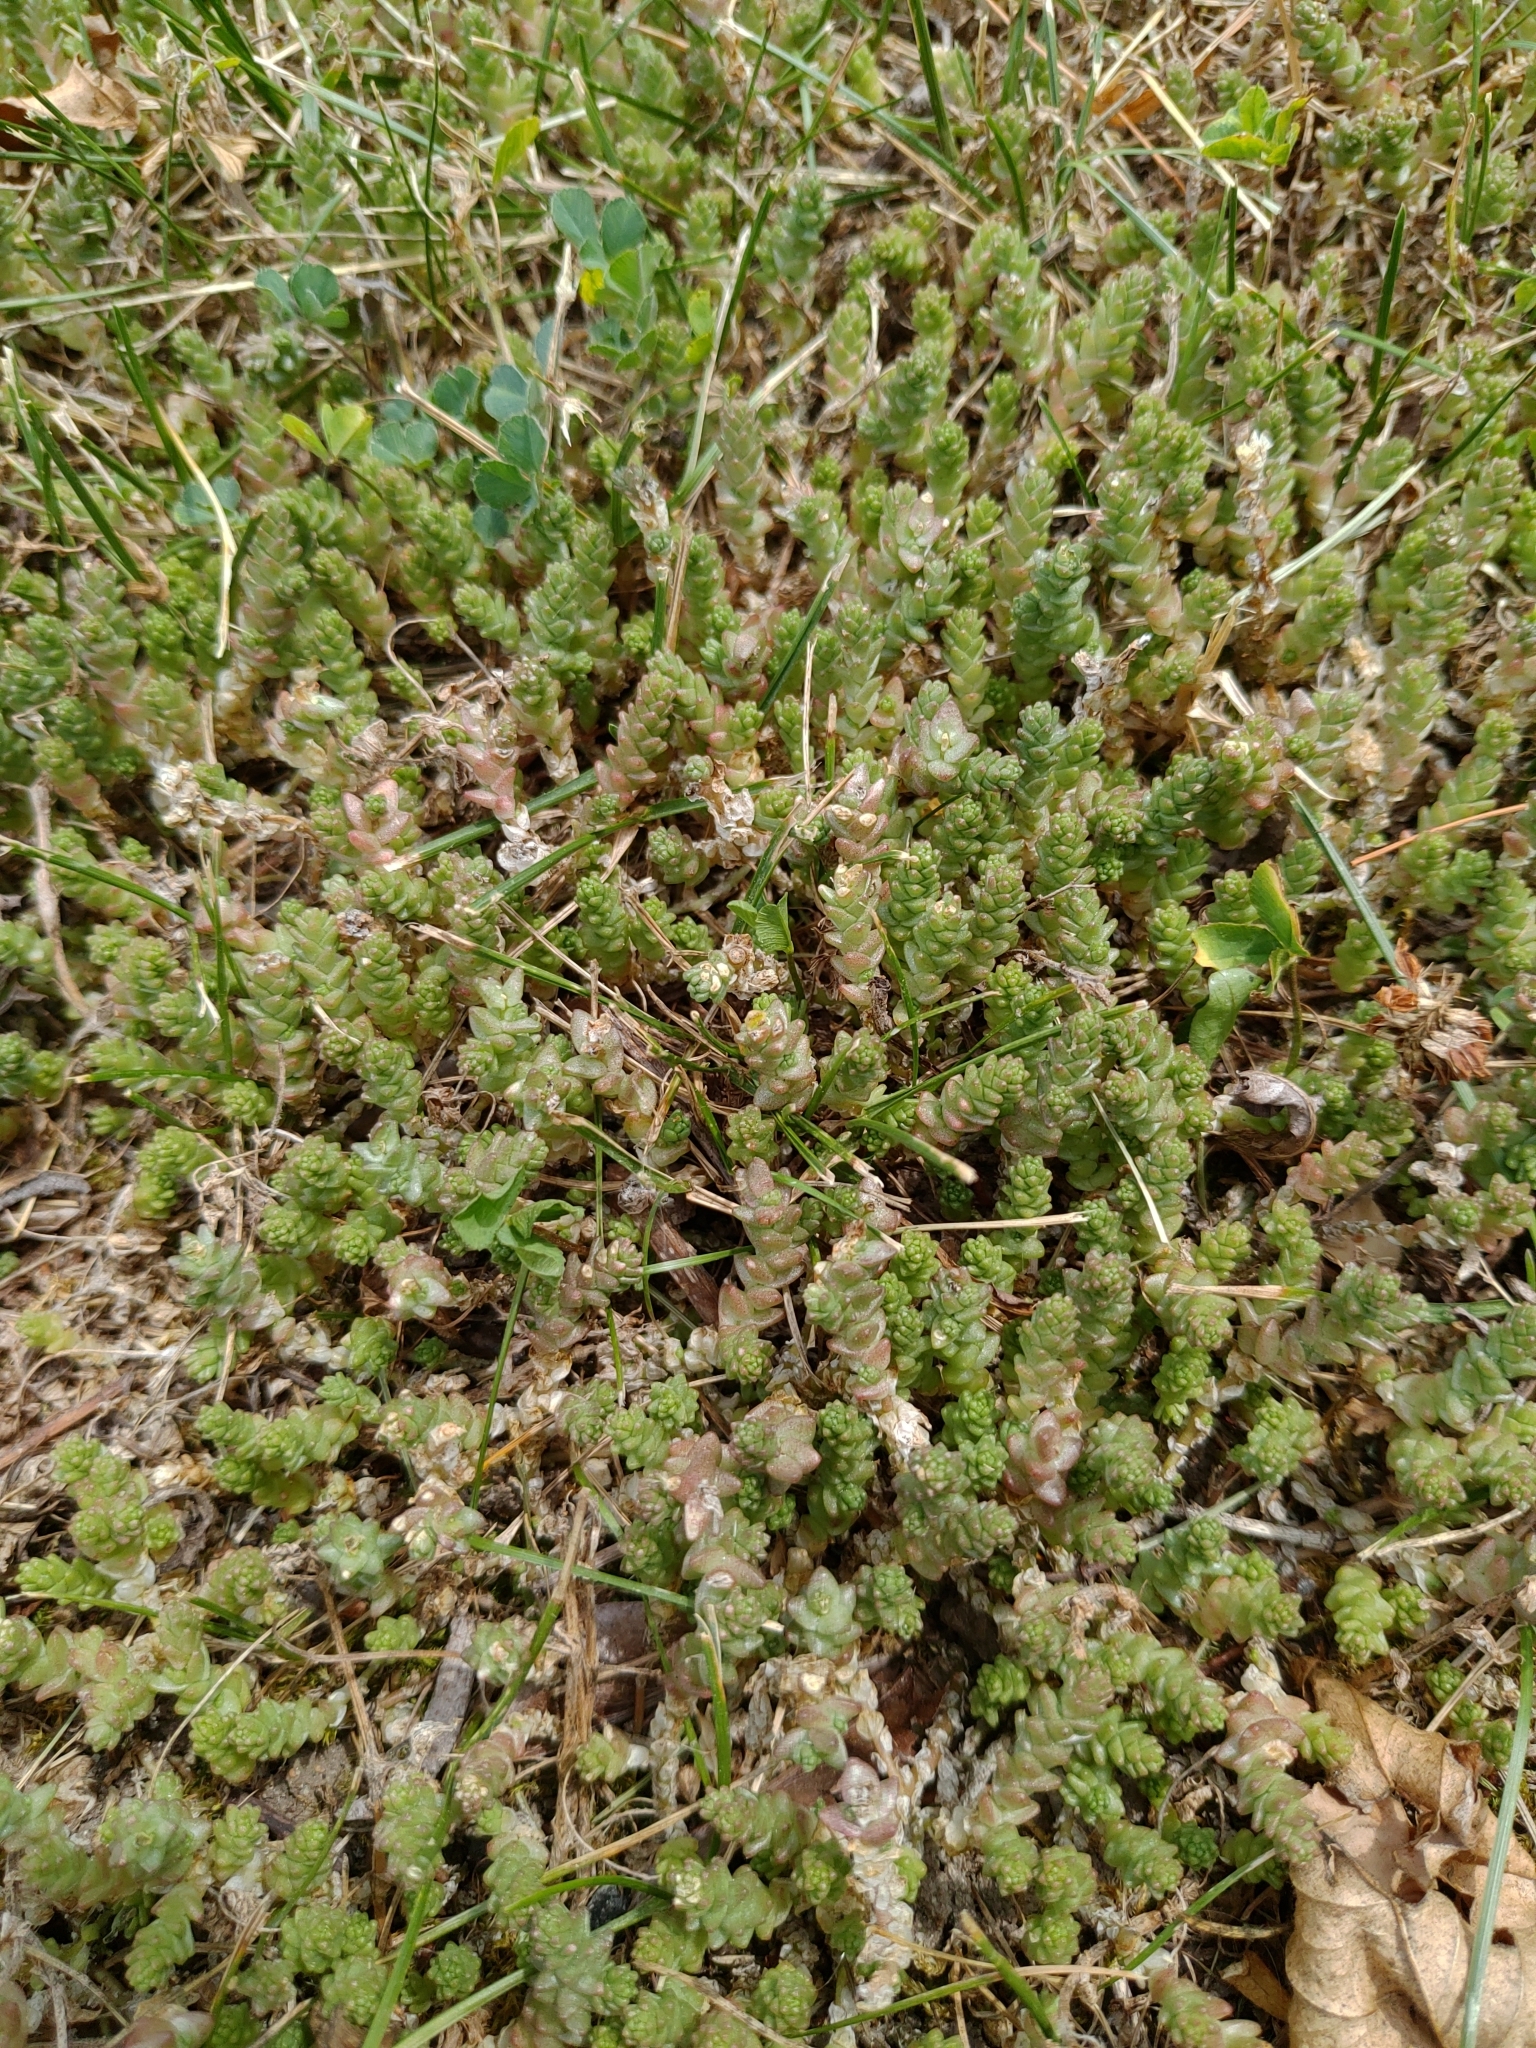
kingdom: Plantae
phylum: Tracheophyta
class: Magnoliopsida
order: Saxifragales
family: Crassulaceae
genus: Sedum
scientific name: Sedum acre
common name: Biting stonecrop
